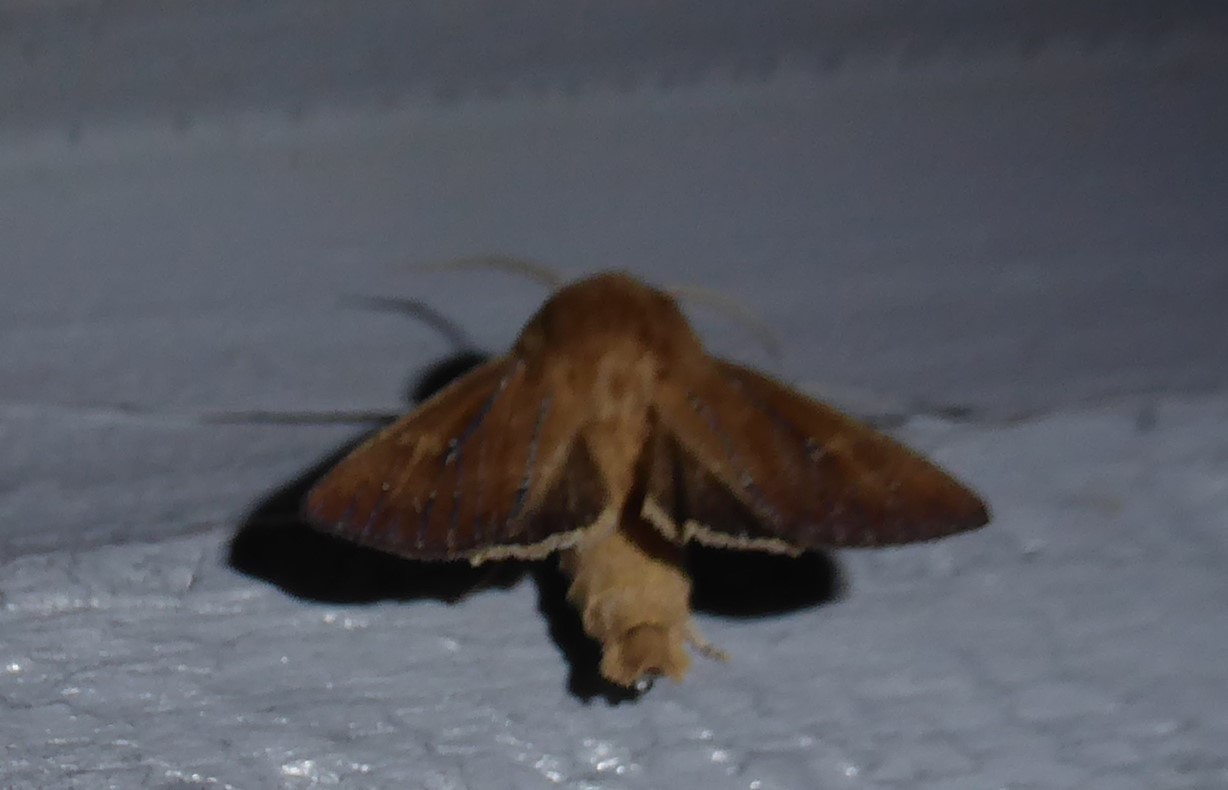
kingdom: Animalia
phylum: Arthropoda
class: Insecta
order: Lepidoptera
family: Noctuidae
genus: Ichneutica
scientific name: Ichneutica
